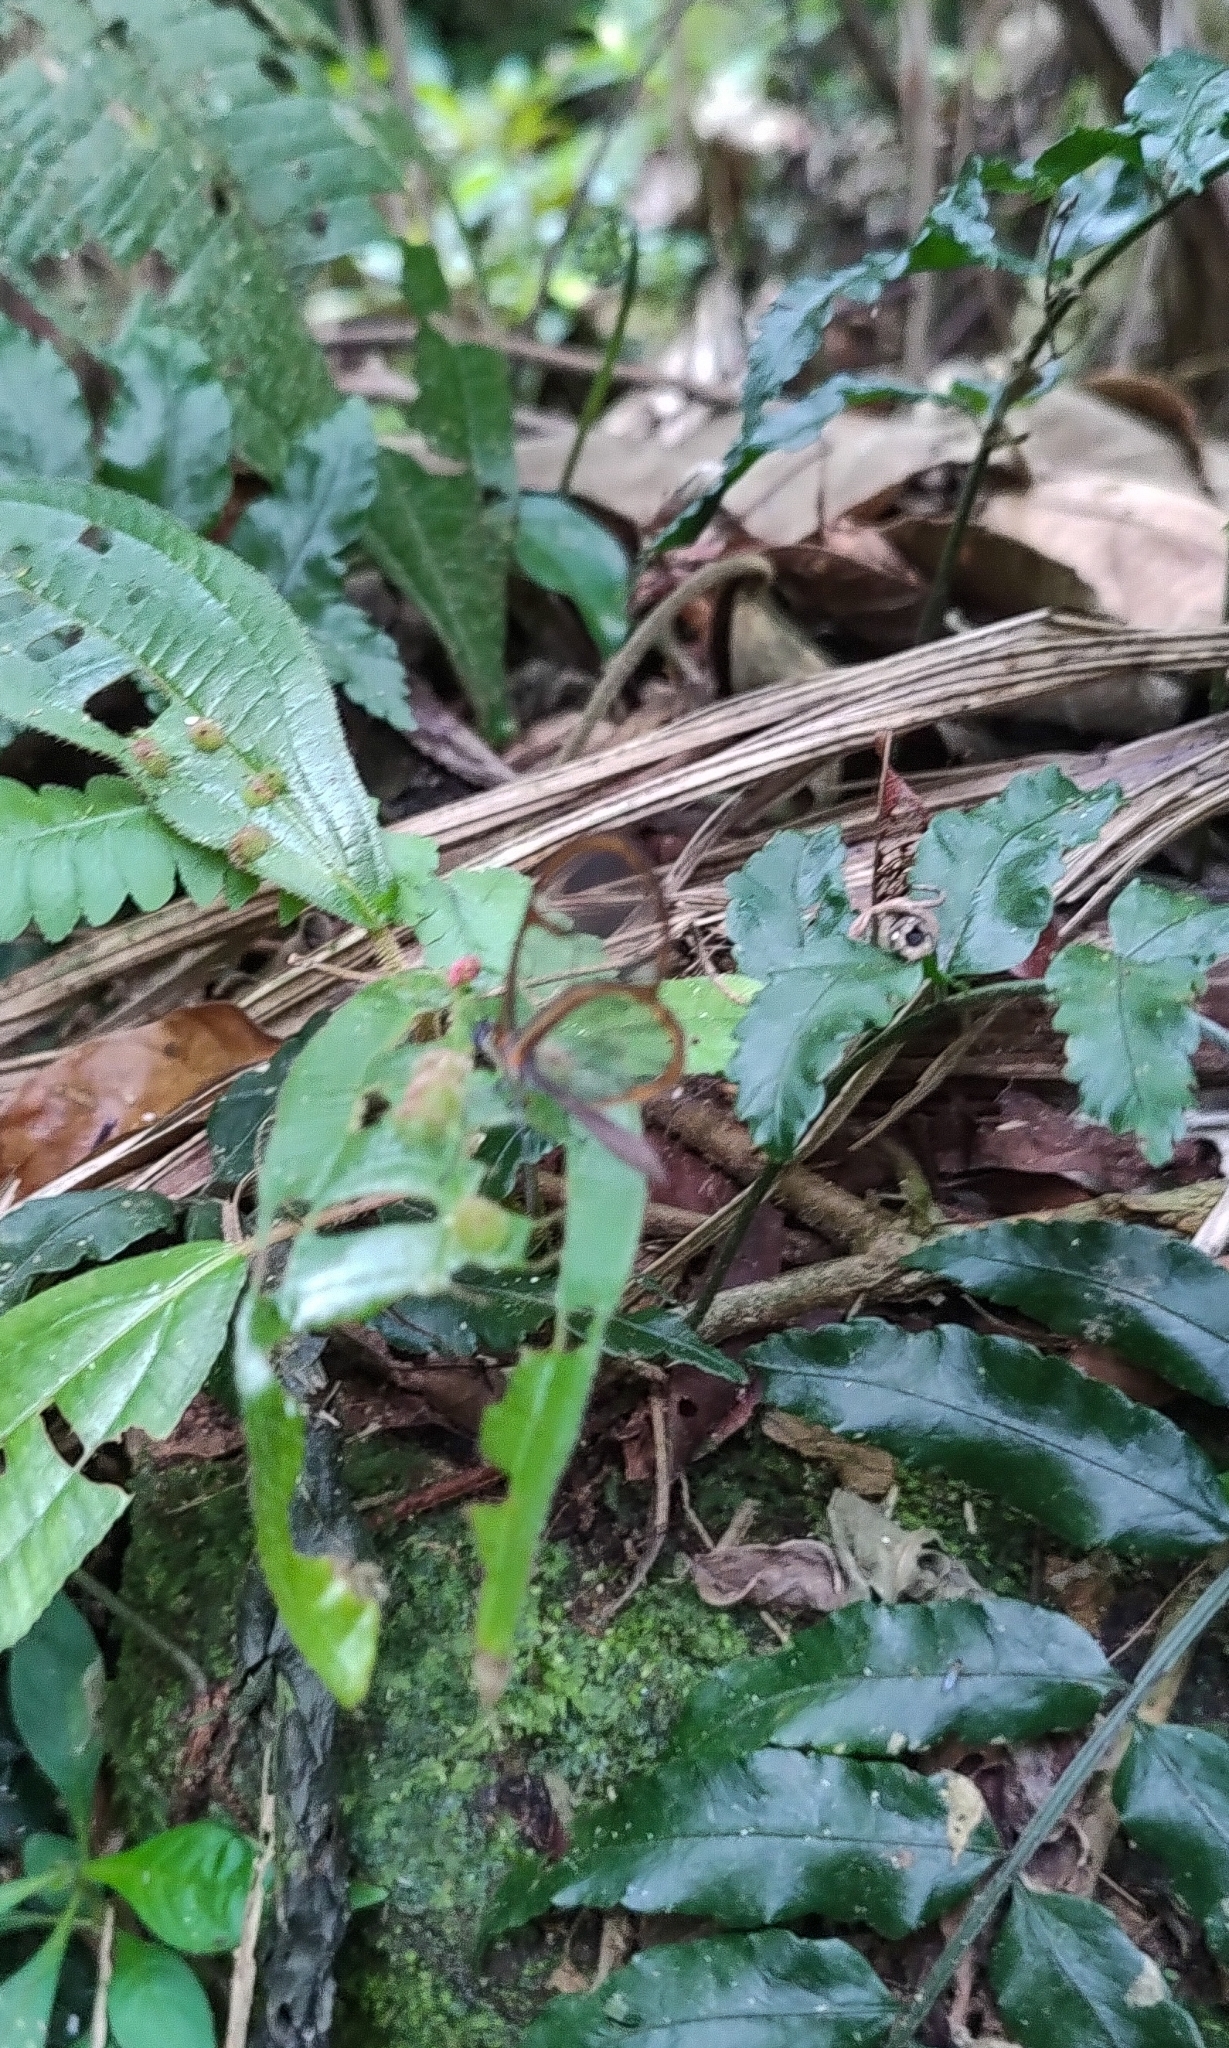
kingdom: Animalia
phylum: Arthropoda
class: Insecta
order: Lepidoptera
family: Nymphalidae
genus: Episcada
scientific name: Episcada sylvo
